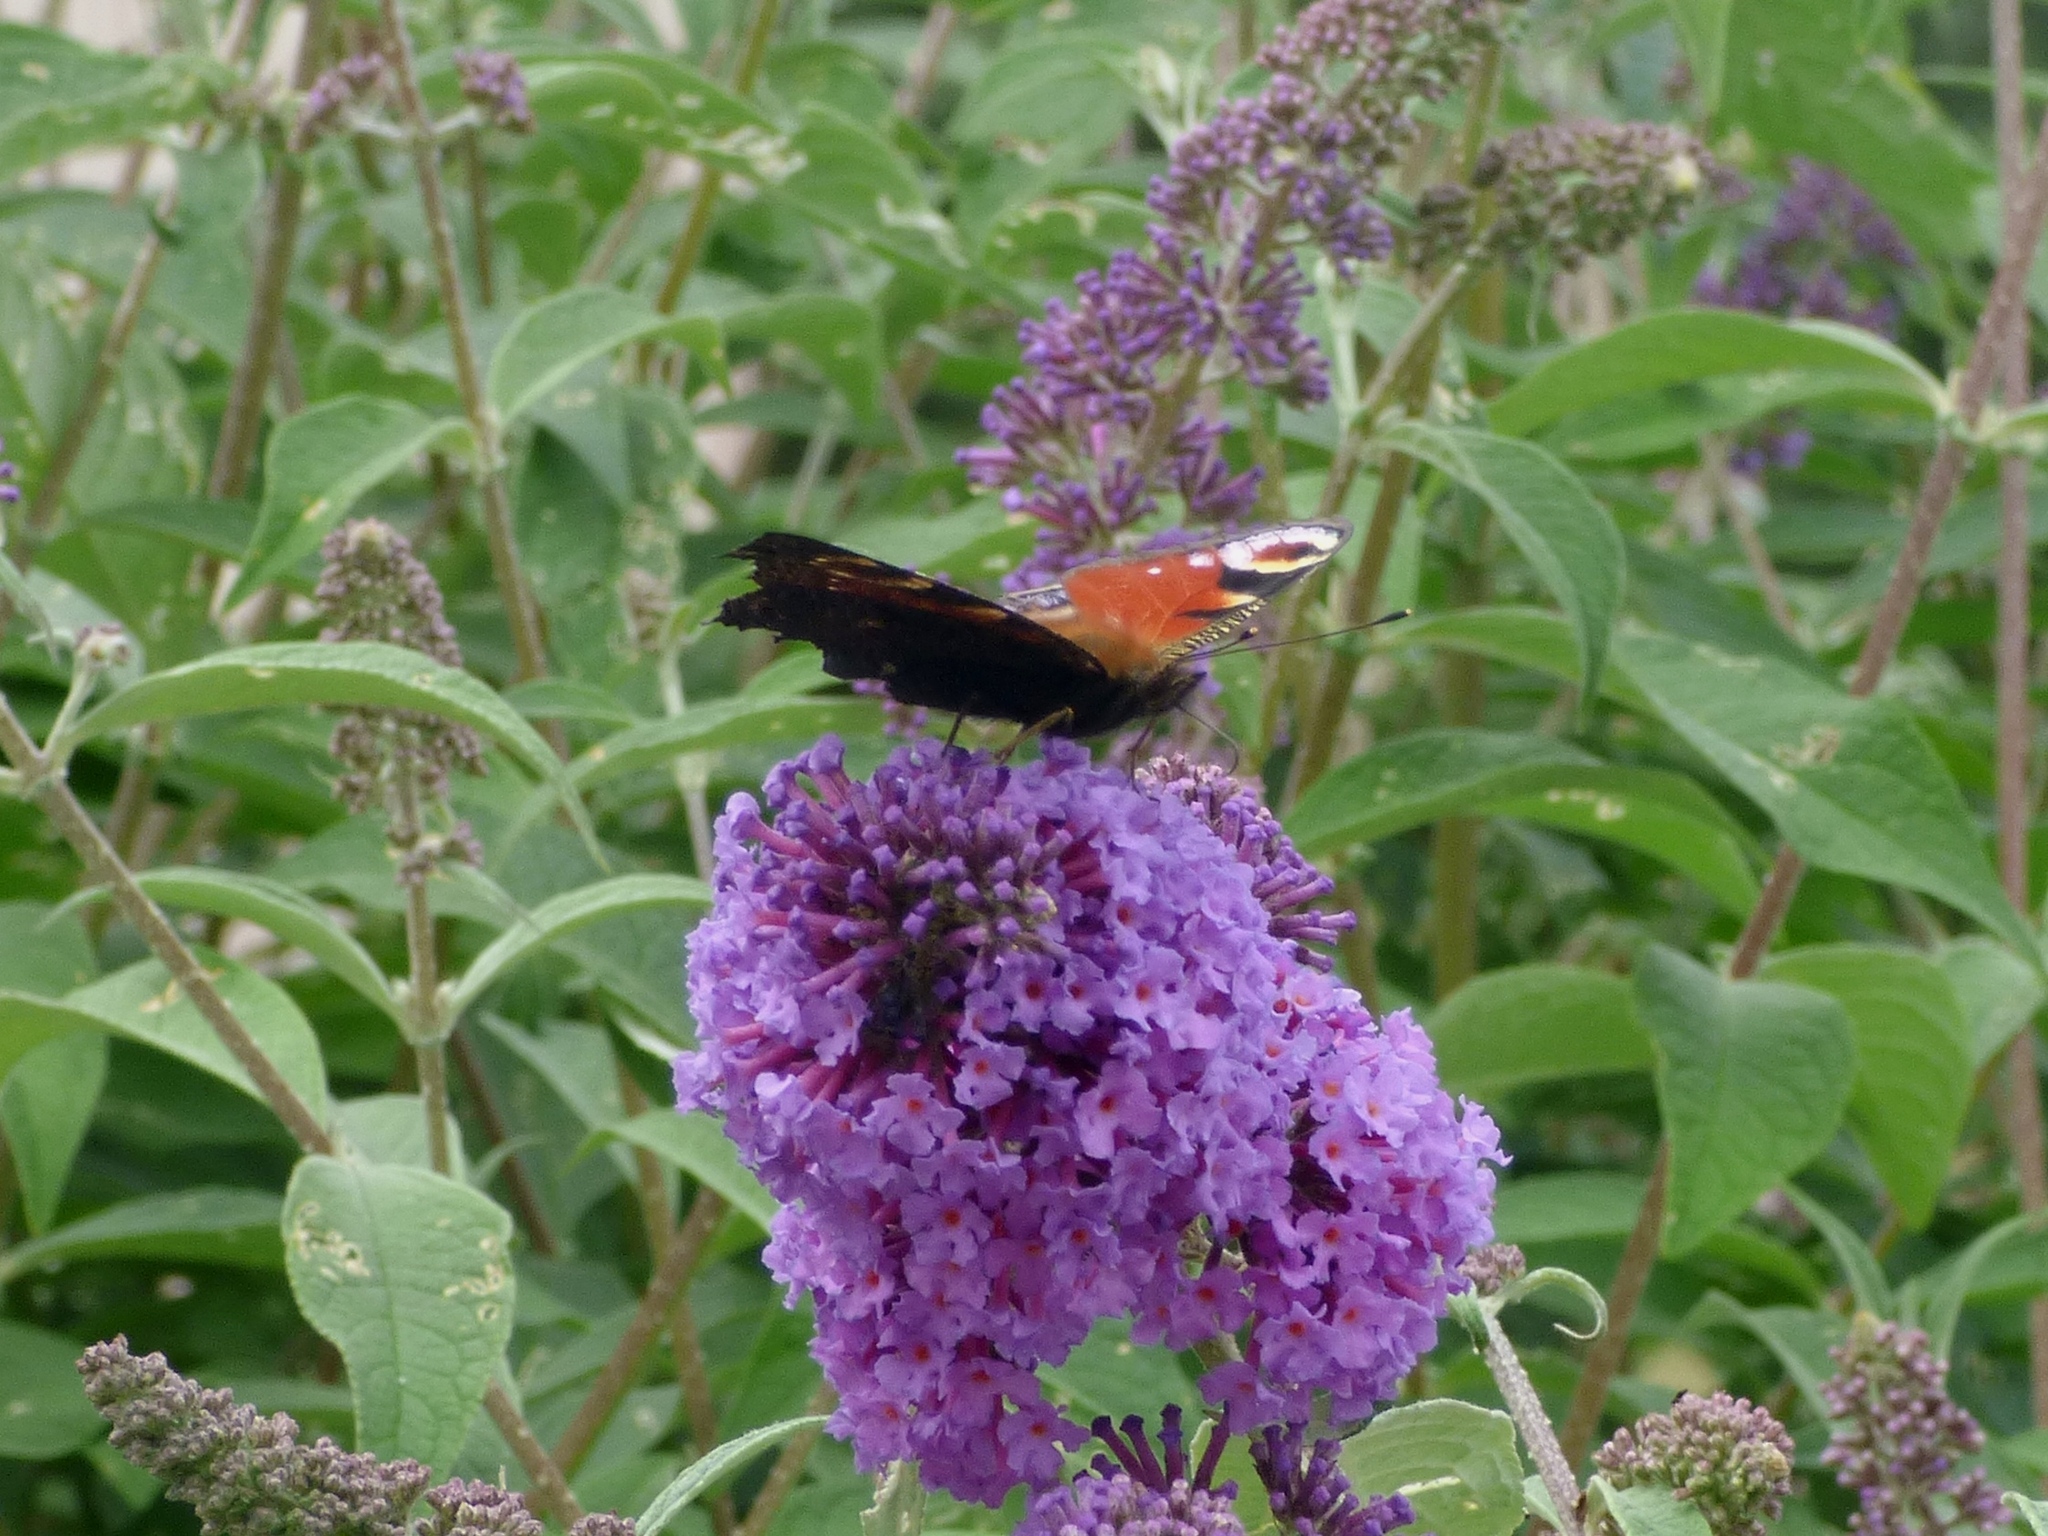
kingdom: Animalia
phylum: Arthropoda
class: Insecta
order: Lepidoptera
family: Nymphalidae
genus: Aglais
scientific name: Aglais io
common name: Peacock
